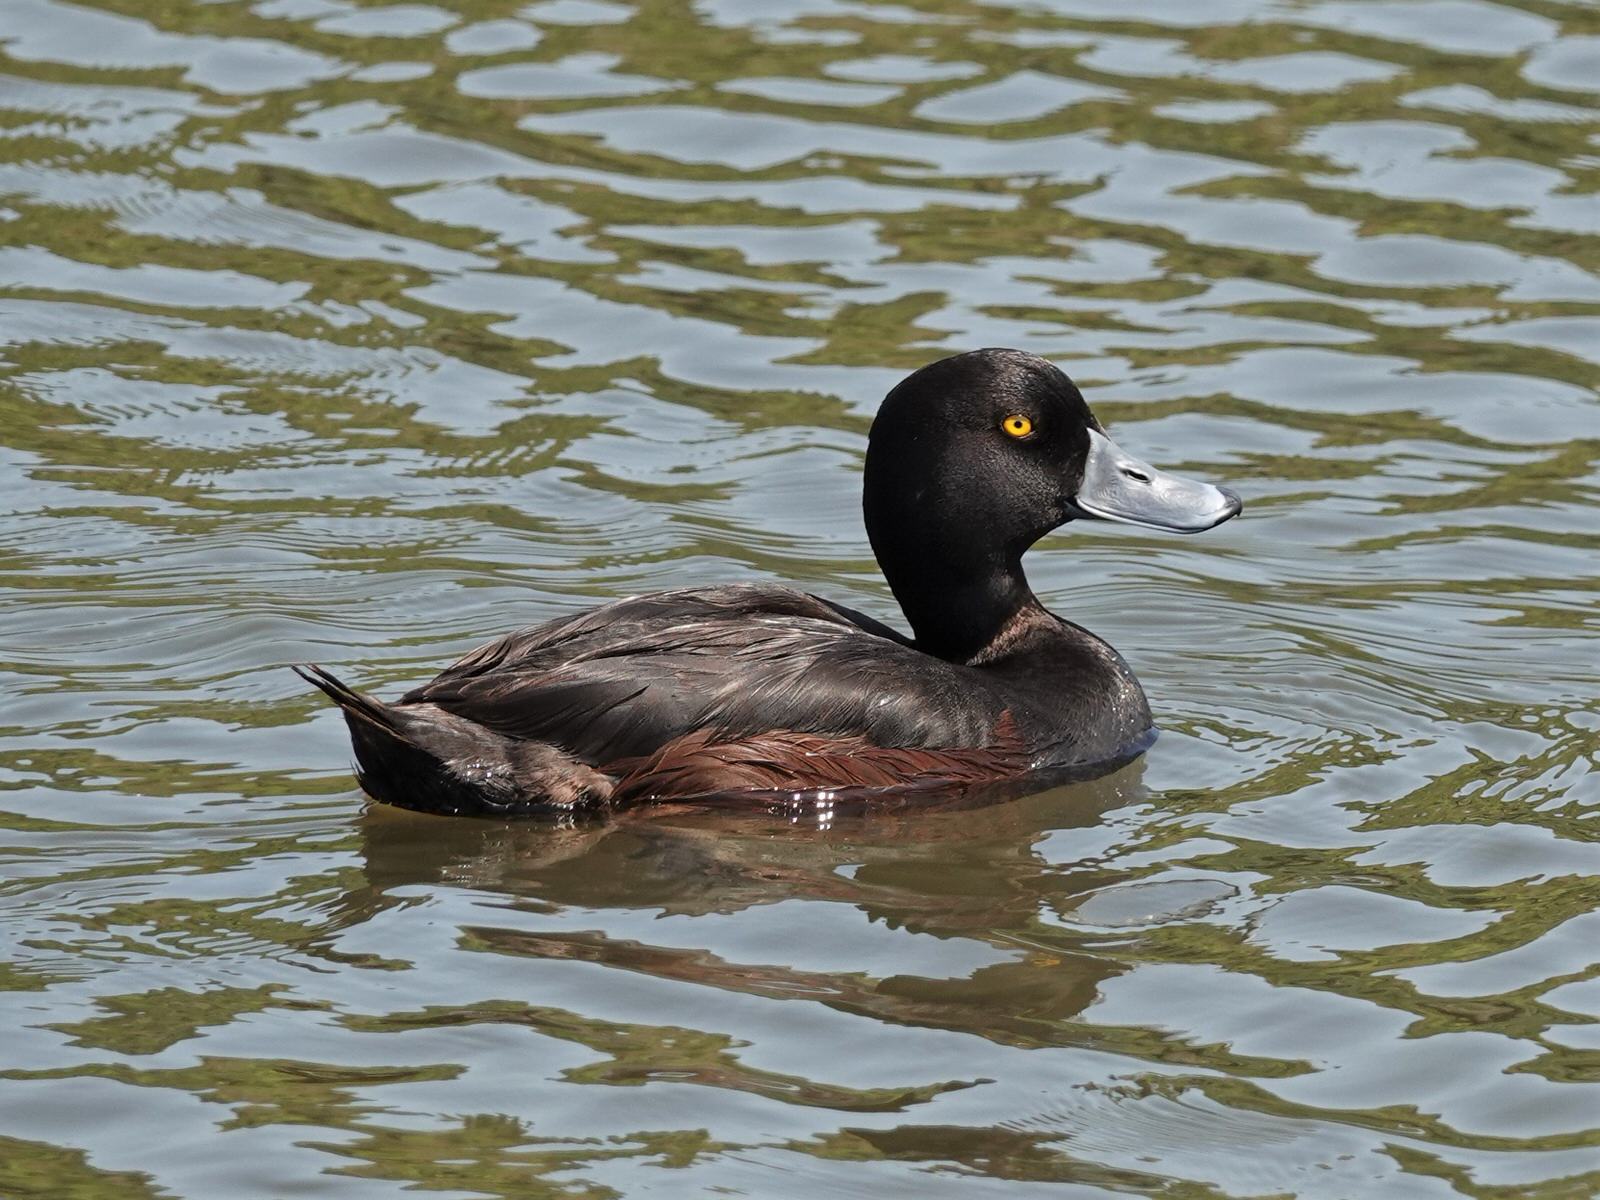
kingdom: Animalia
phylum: Chordata
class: Aves
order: Anseriformes
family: Anatidae
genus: Aythya
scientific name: Aythya novaeseelandiae
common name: New zealand scaup
